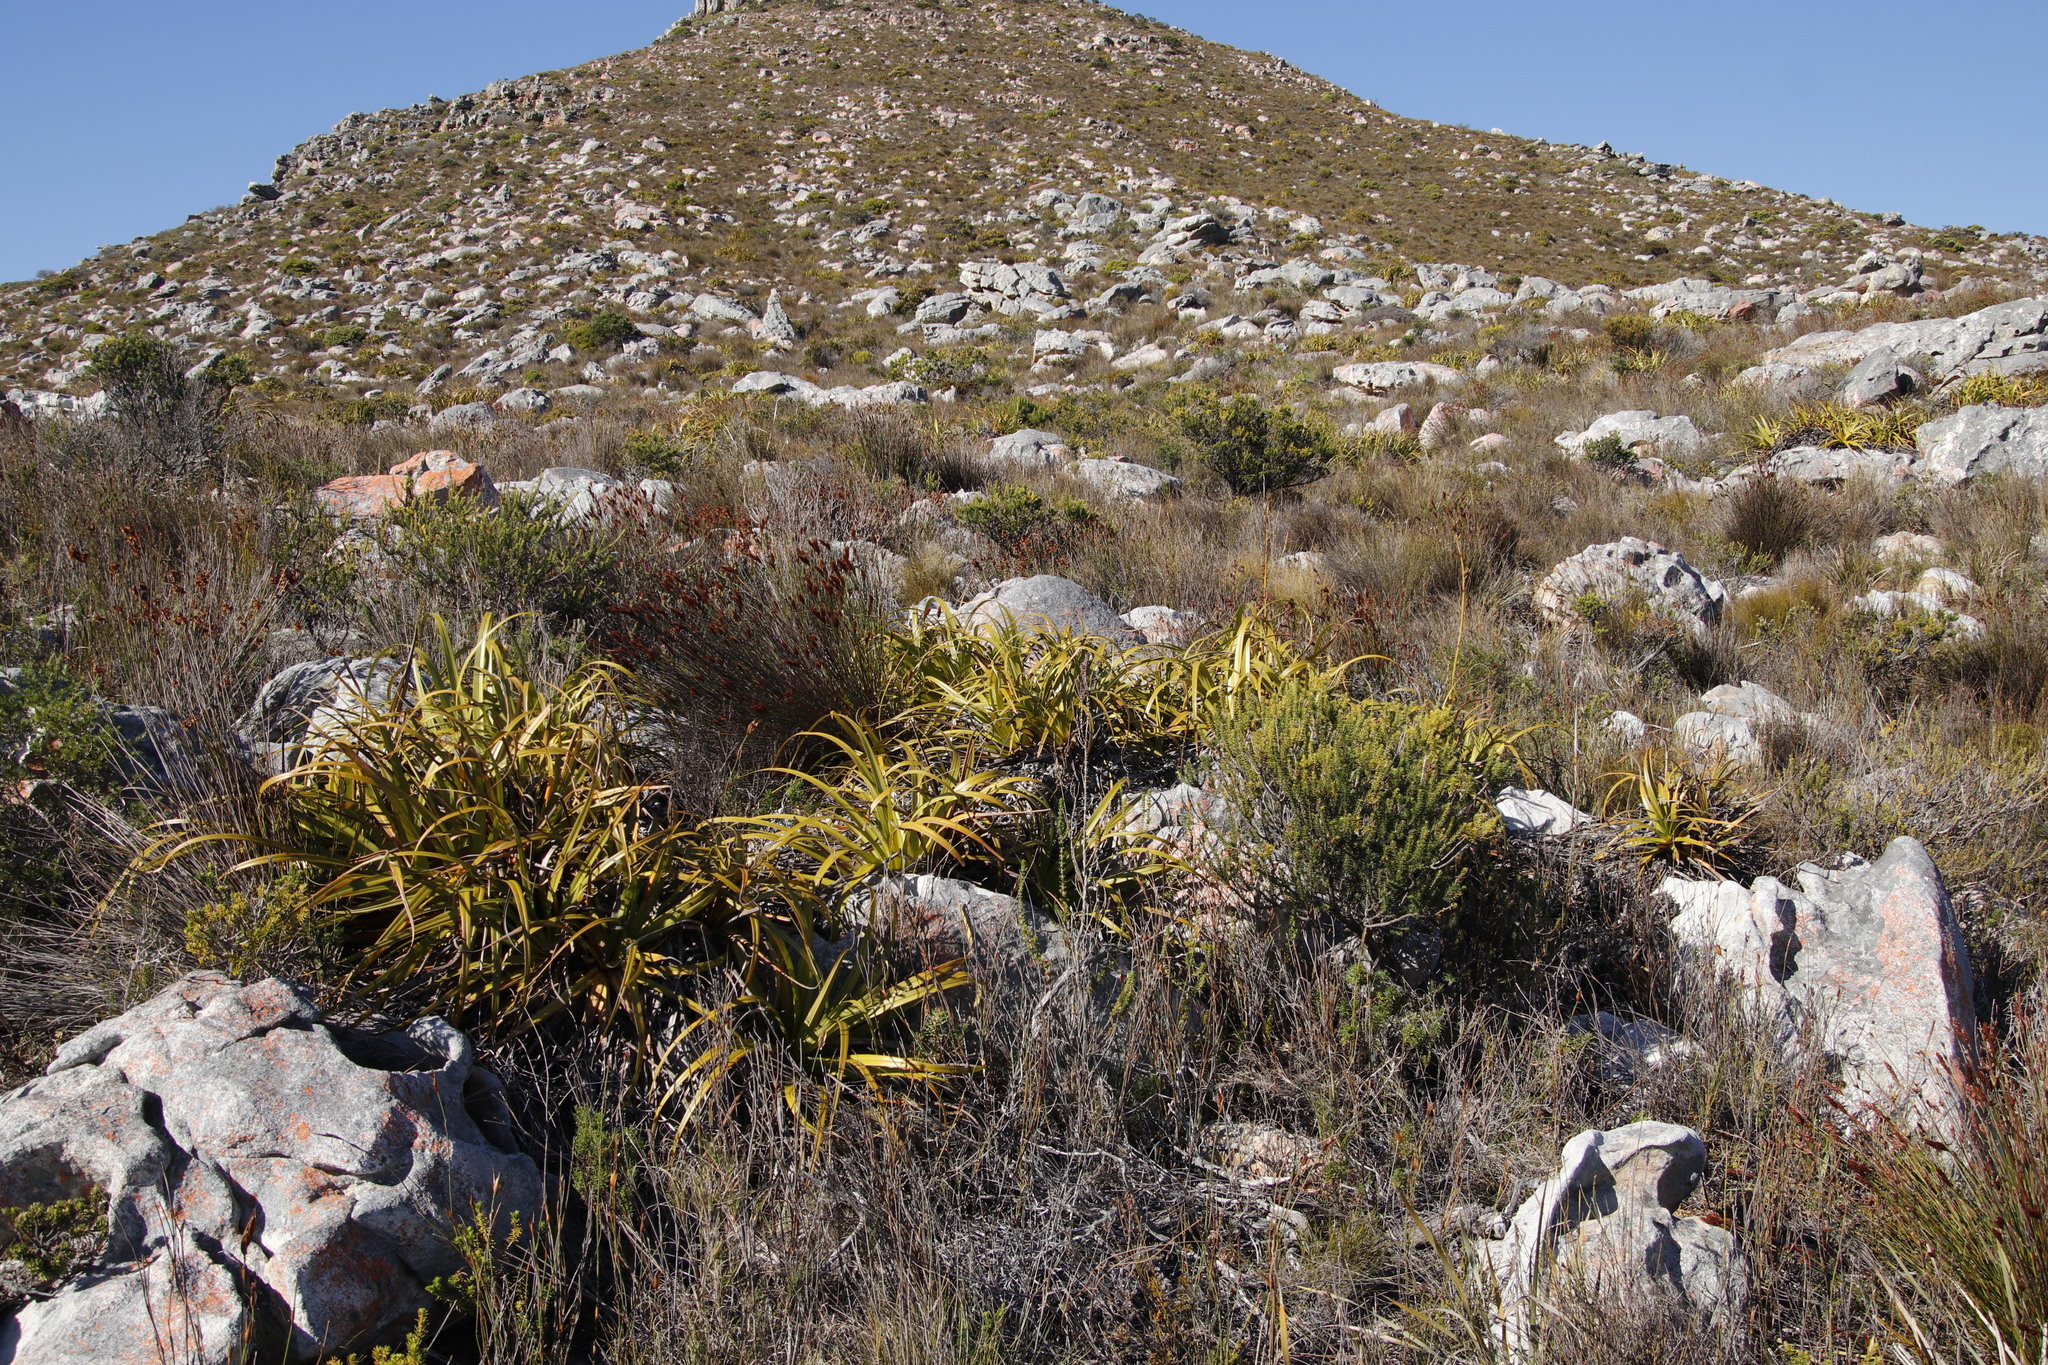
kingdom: Plantae
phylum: Tracheophyta
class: Liliopsida
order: Poales
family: Cyperaceae
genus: Tetraria
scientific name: Tetraria thermalis
